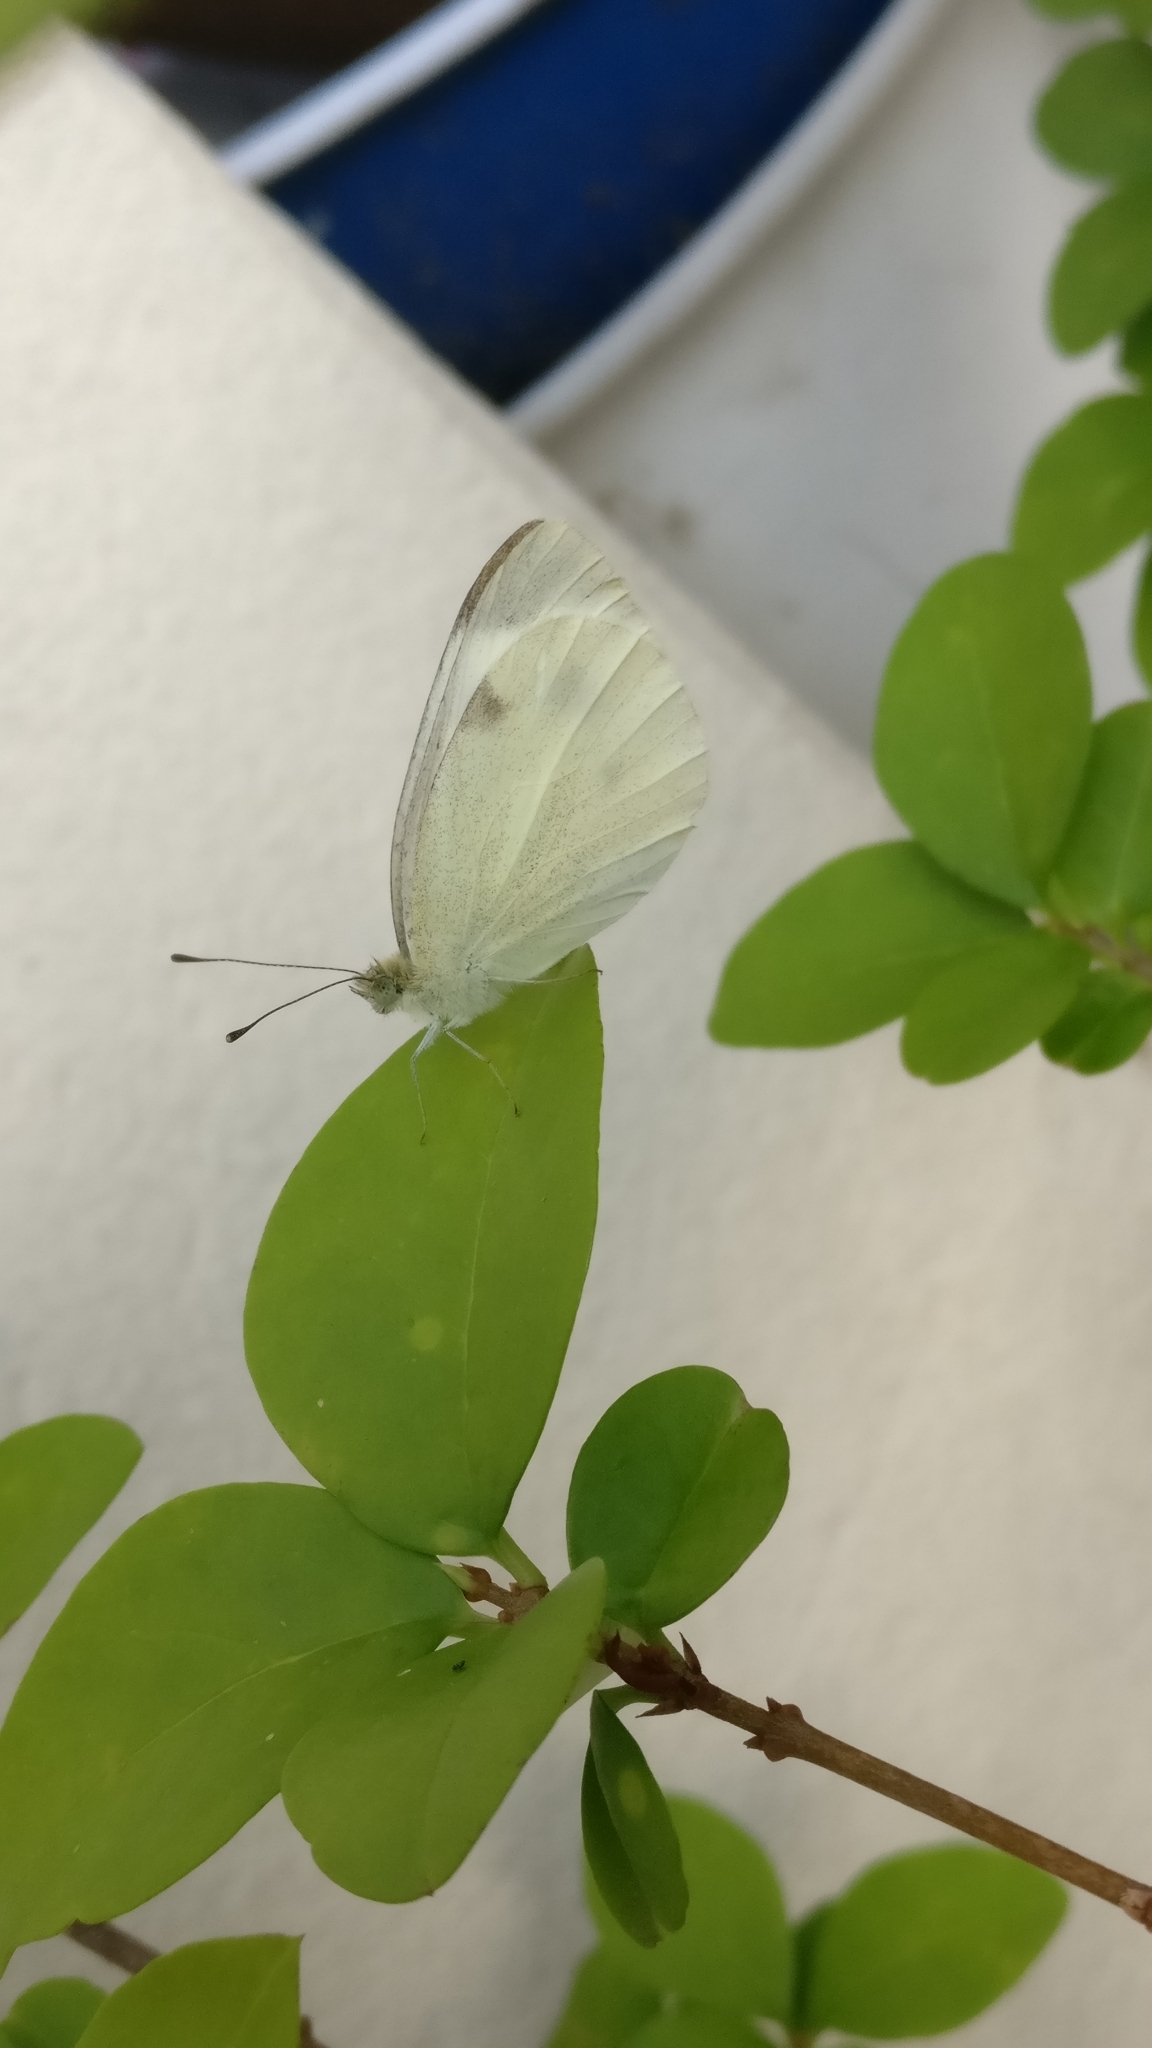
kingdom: Animalia
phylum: Arthropoda
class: Insecta
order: Lepidoptera
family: Pieridae
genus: Pieris
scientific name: Pieris rapae
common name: Small white
